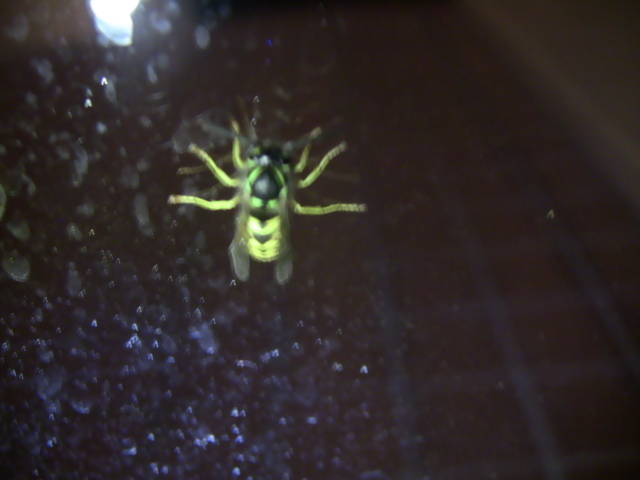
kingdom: Animalia
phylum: Arthropoda
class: Insecta
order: Hymenoptera
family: Vespidae
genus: Vespula
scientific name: Vespula germanica
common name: German wasp
